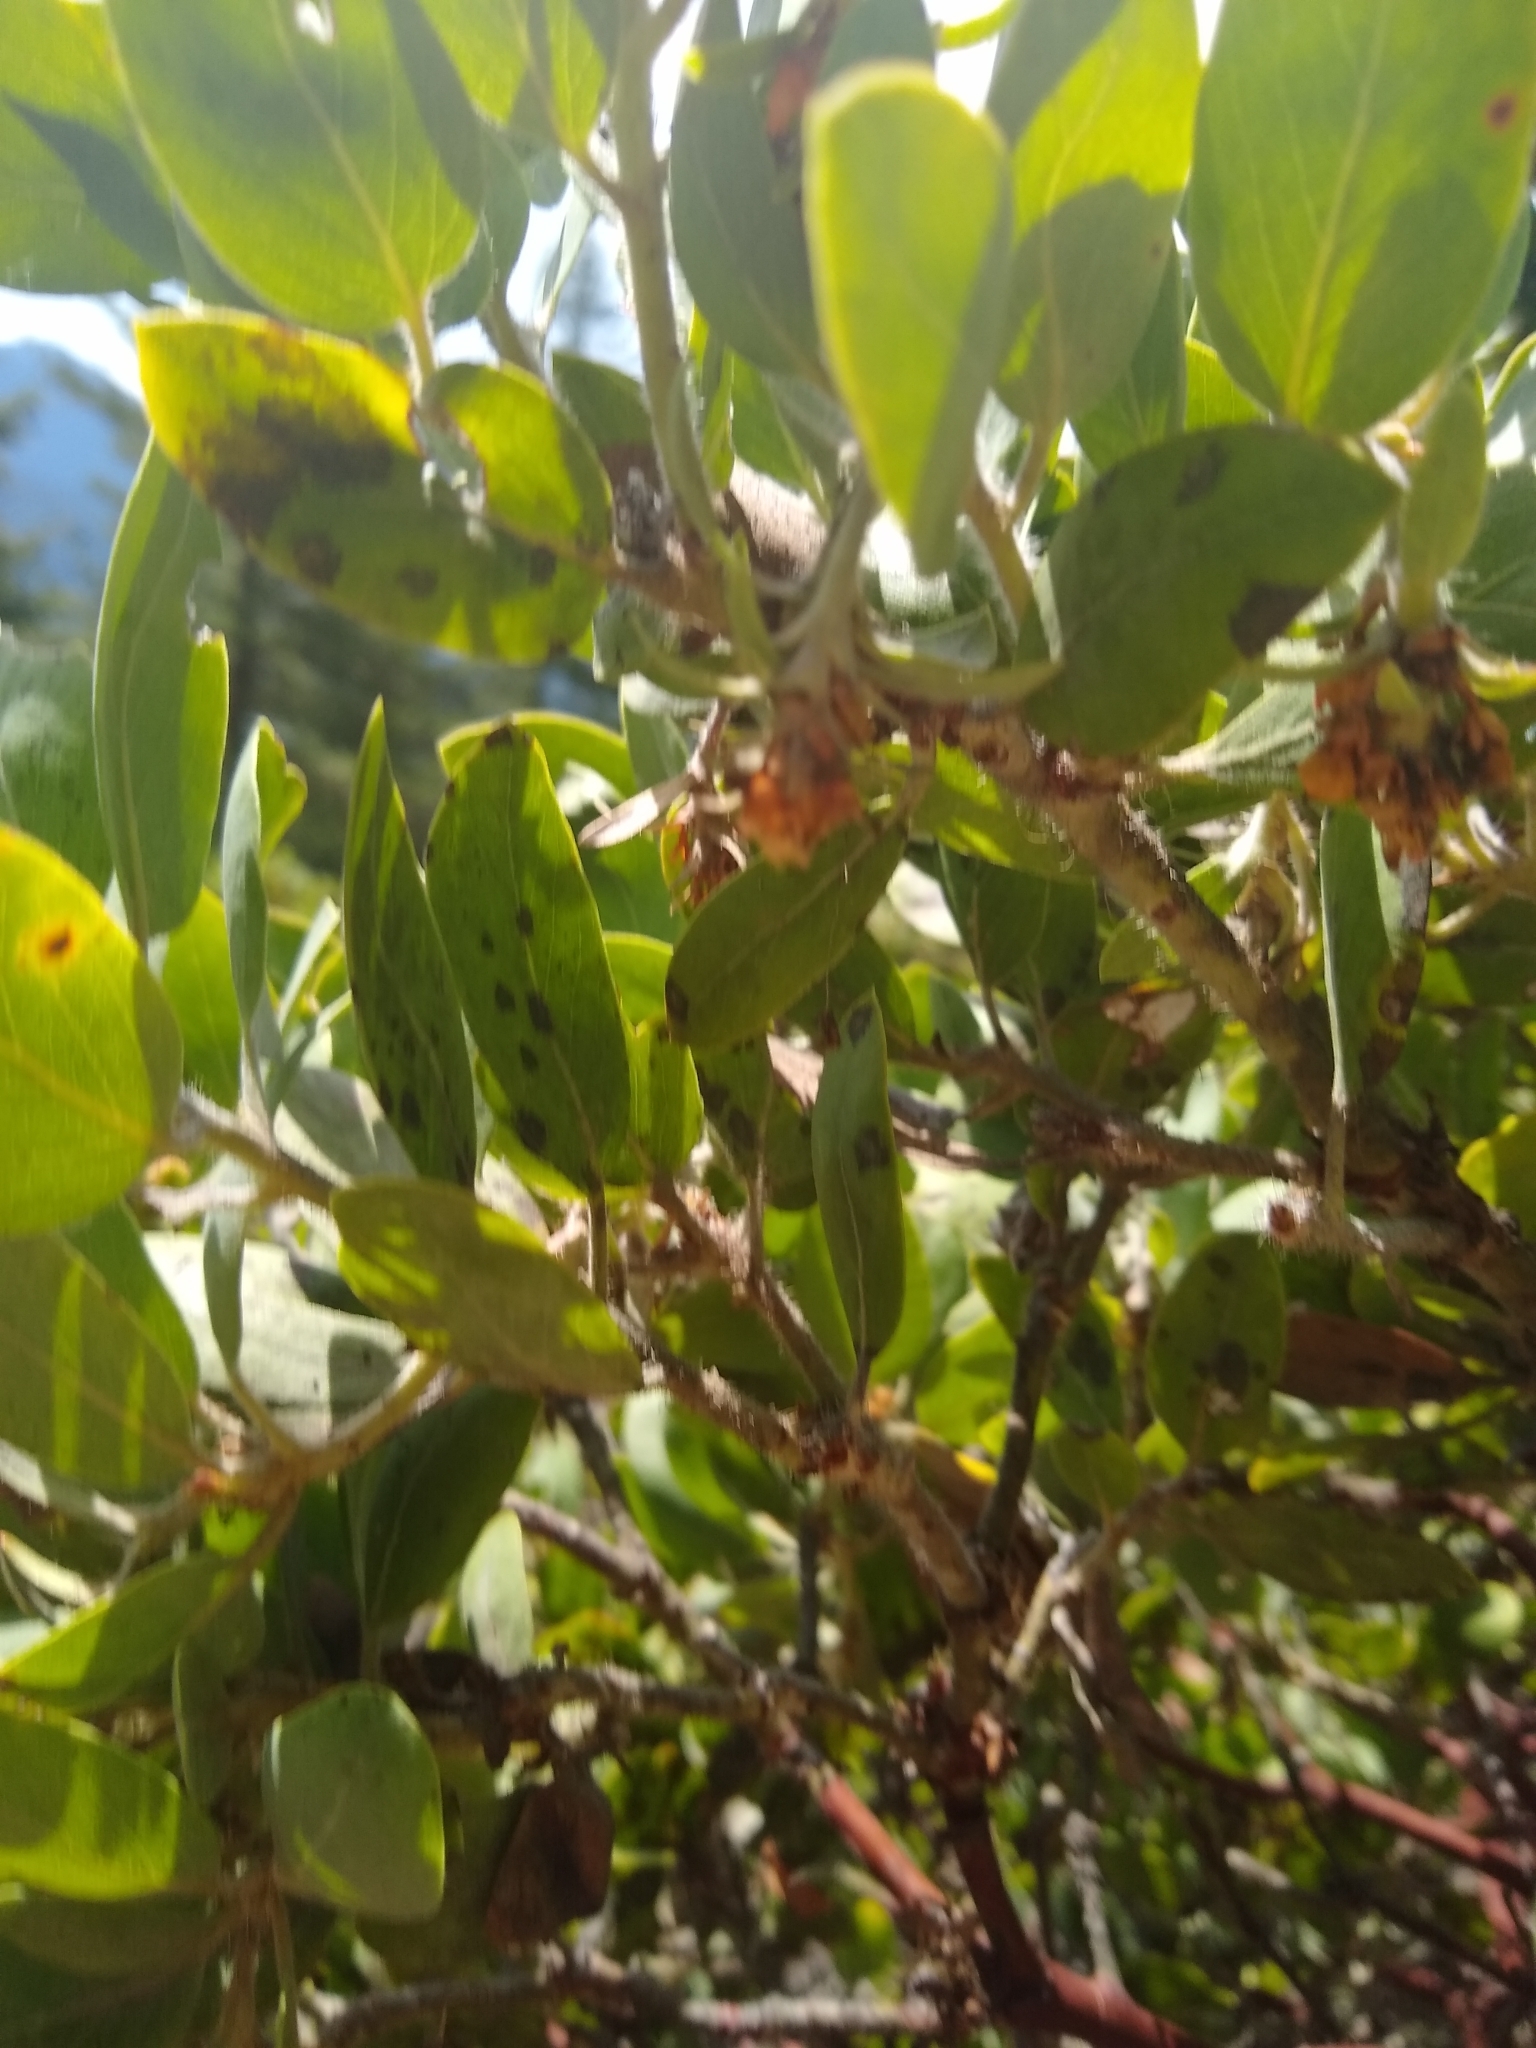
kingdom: Plantae
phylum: Tracheophyta
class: Magnoliopsida
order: Ericales
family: Ericaceae
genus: Arctostaphylos
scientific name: Arctostaphylos columbiana
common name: Bristly bearberry
